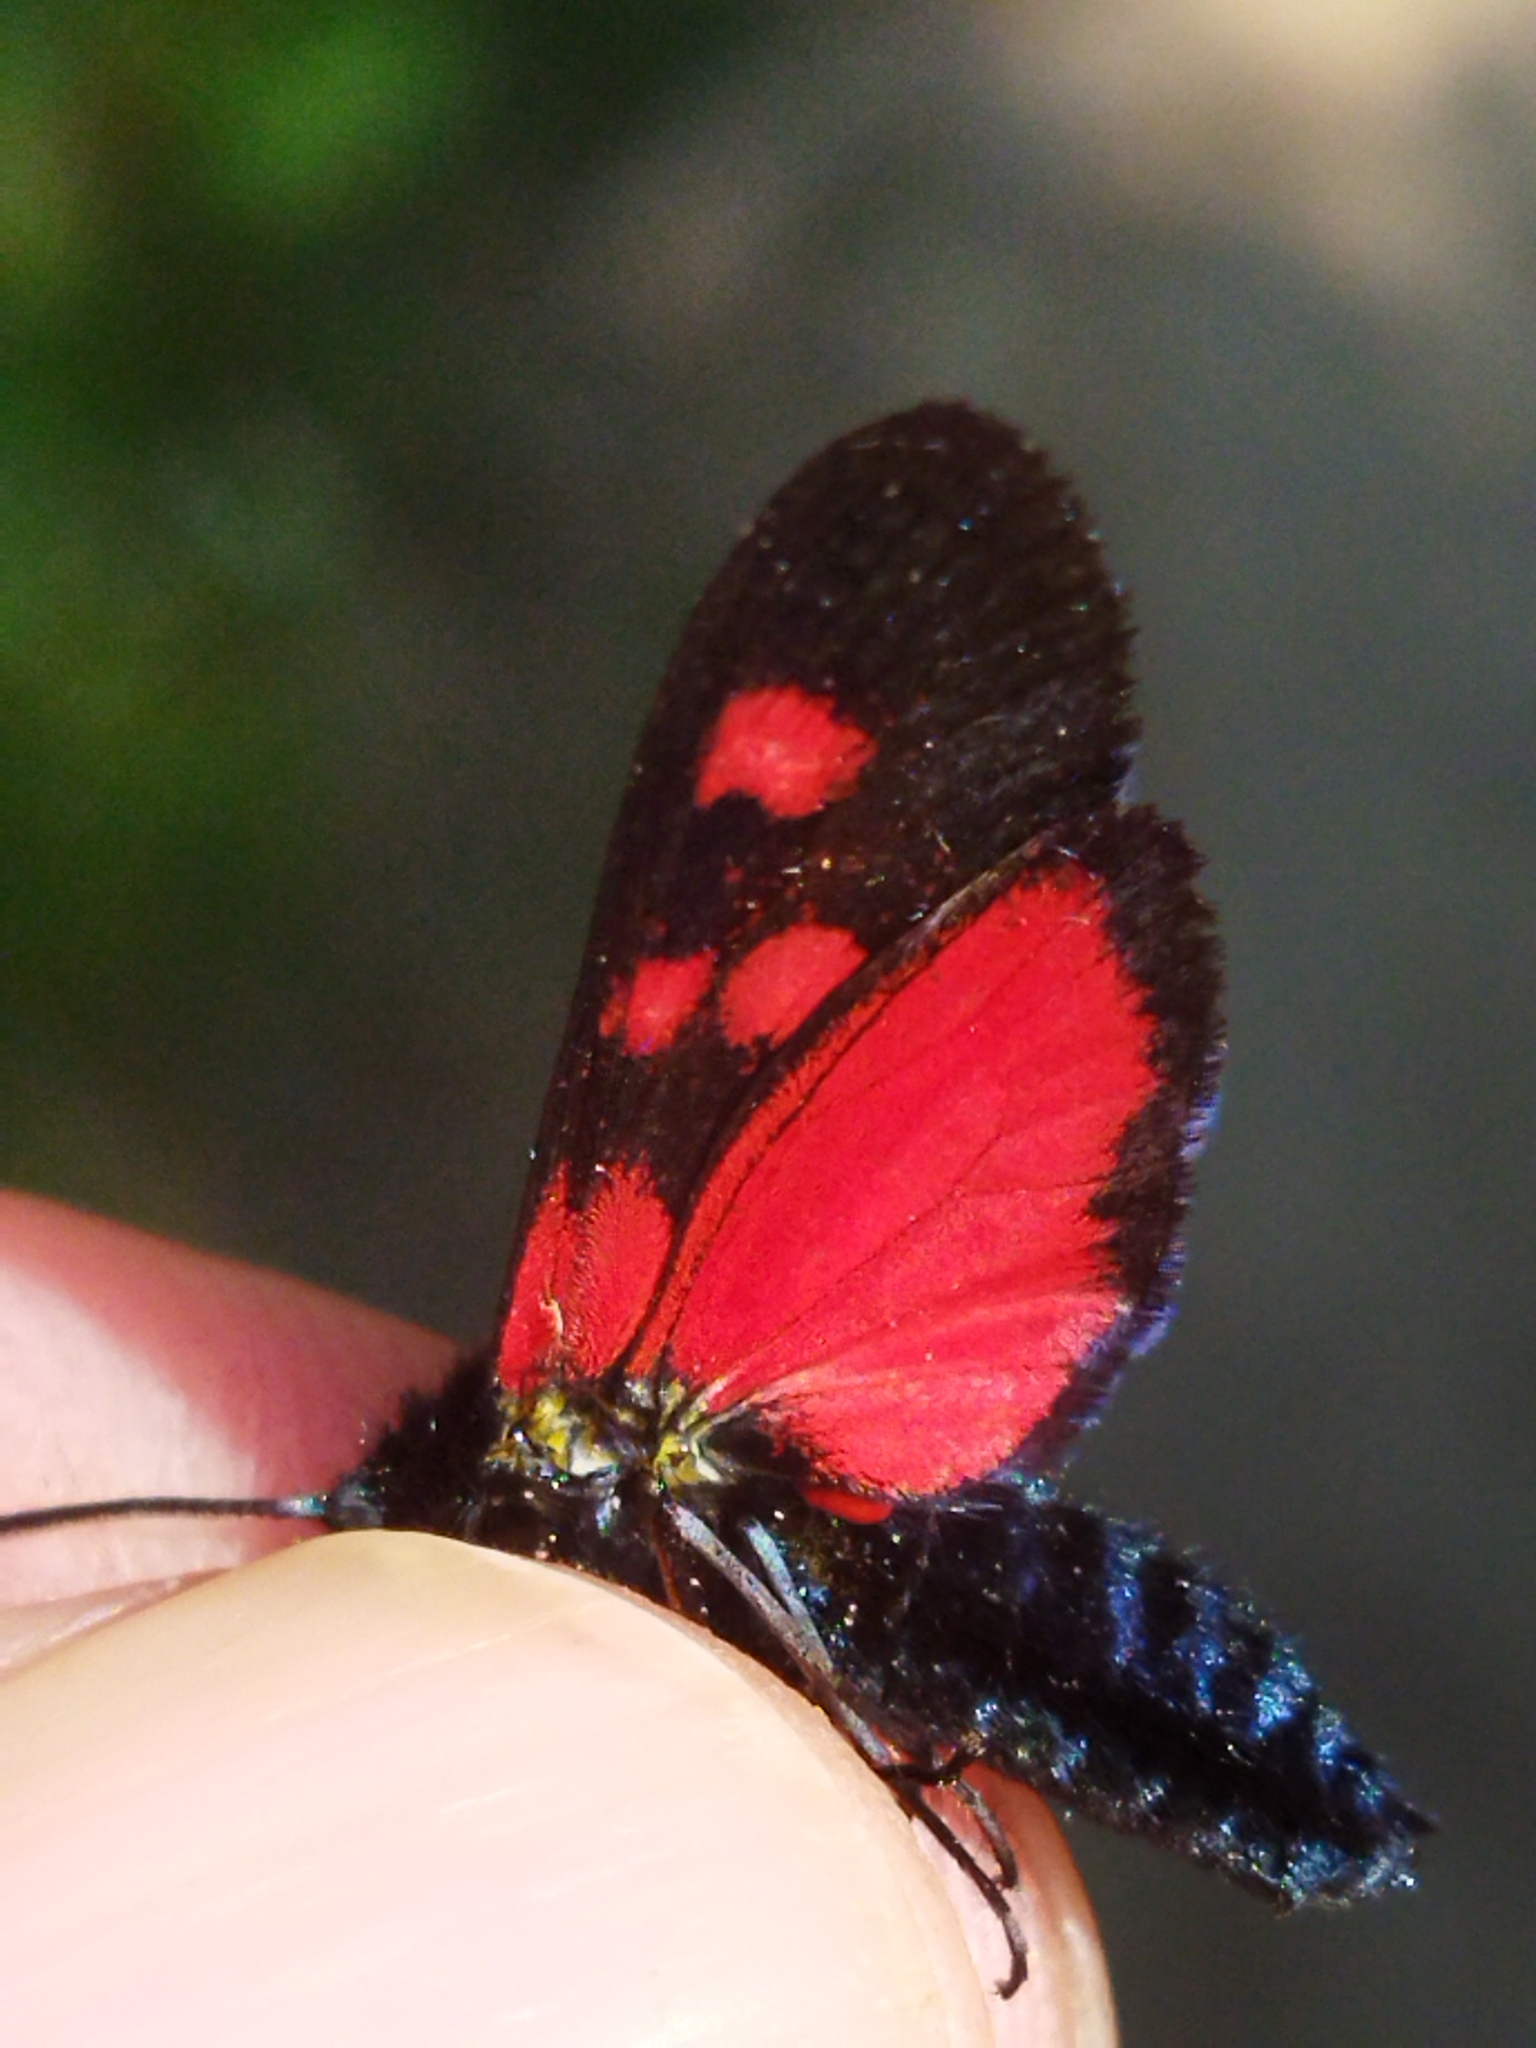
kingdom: Animalia
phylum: Arthropoda
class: Insecta
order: Lepidoptera
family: Zygaenidae
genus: Zygaena
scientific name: Zygaena lonicerae
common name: Narrow-bordered five-spot burnet
